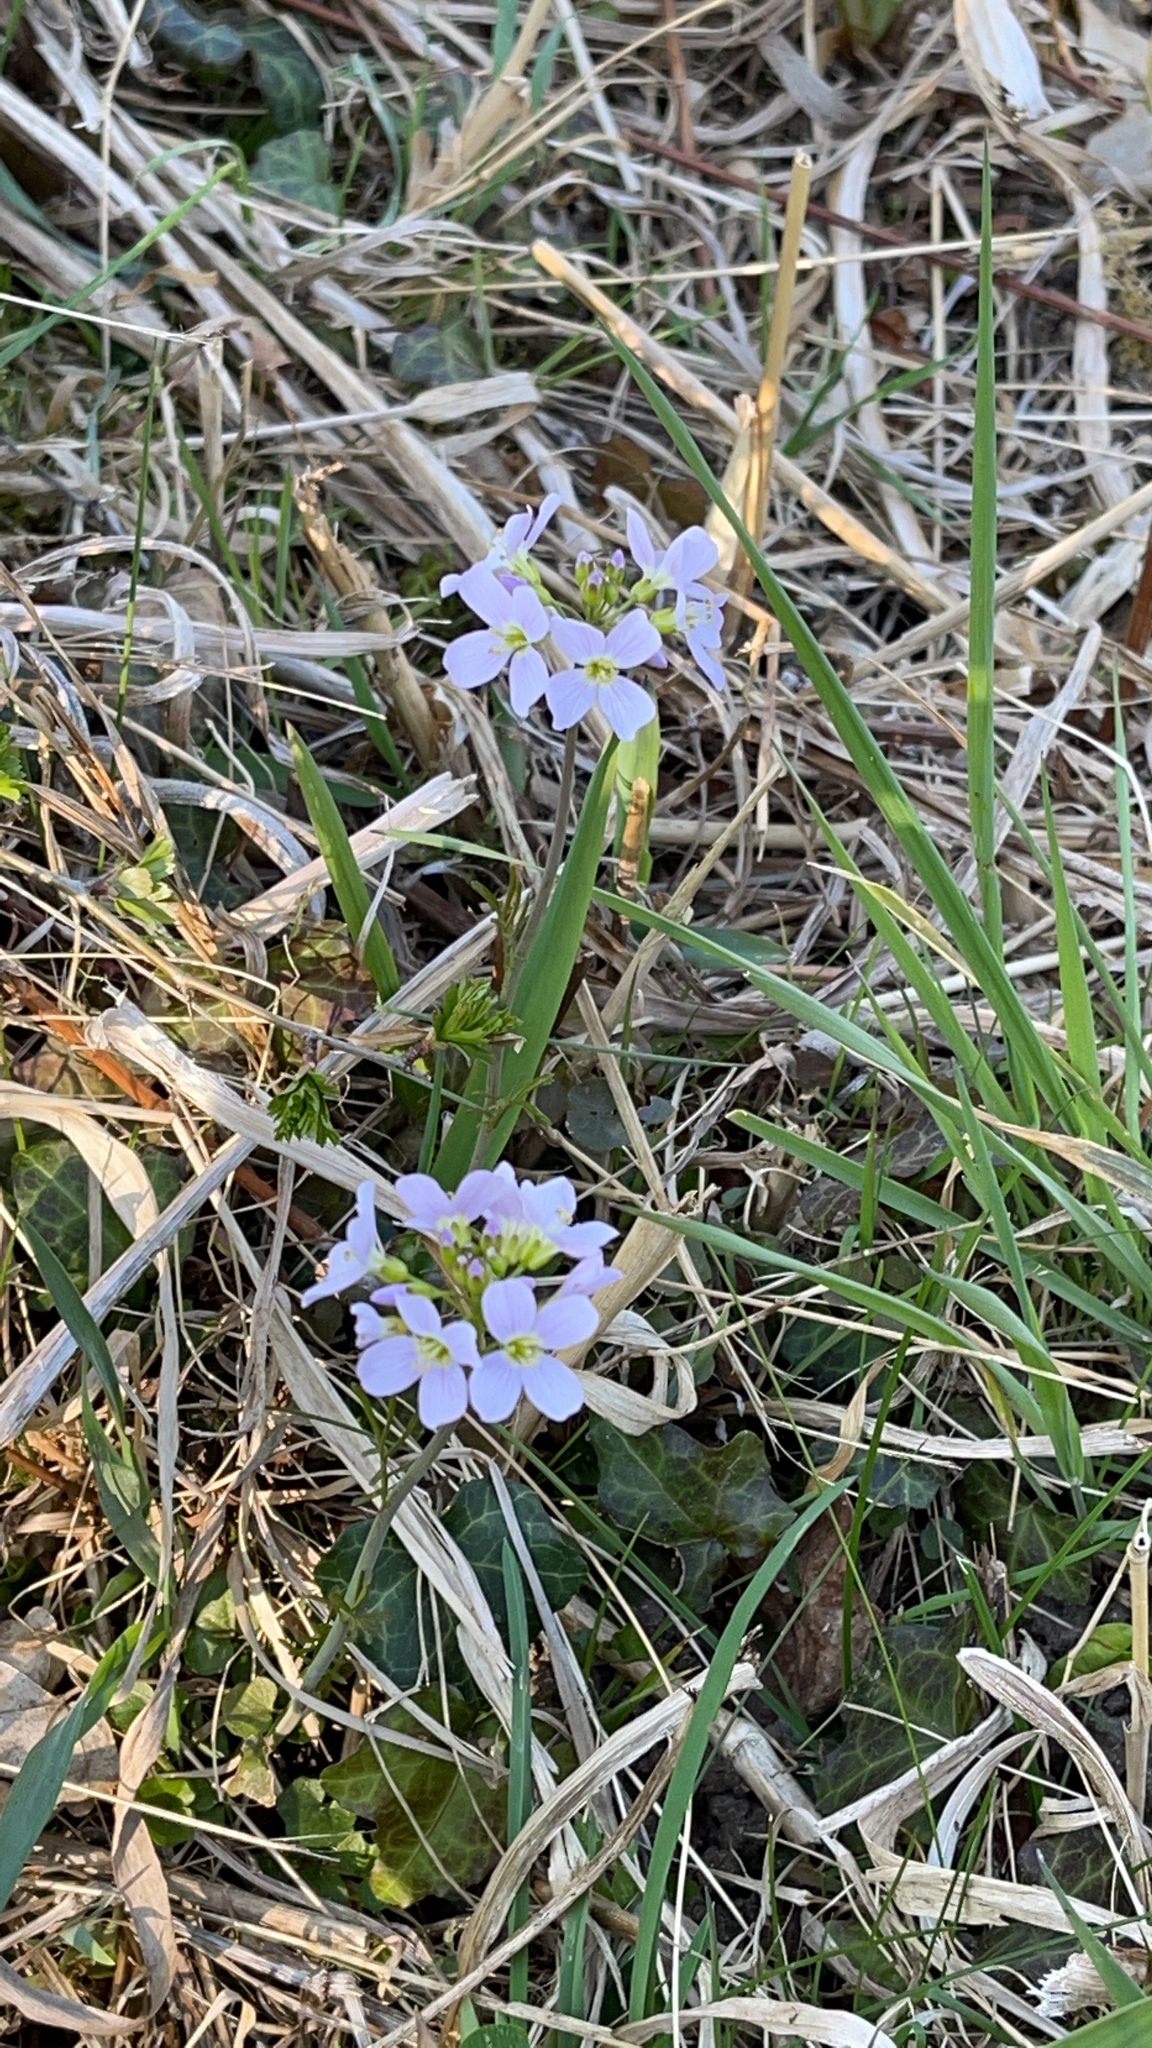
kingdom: Plantae
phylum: Tracheophyta
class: Magnoliopsida
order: Brassicales
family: Brassicaceae
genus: Cardamine
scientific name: Cardamine pratensis
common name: Cuckoo flower
